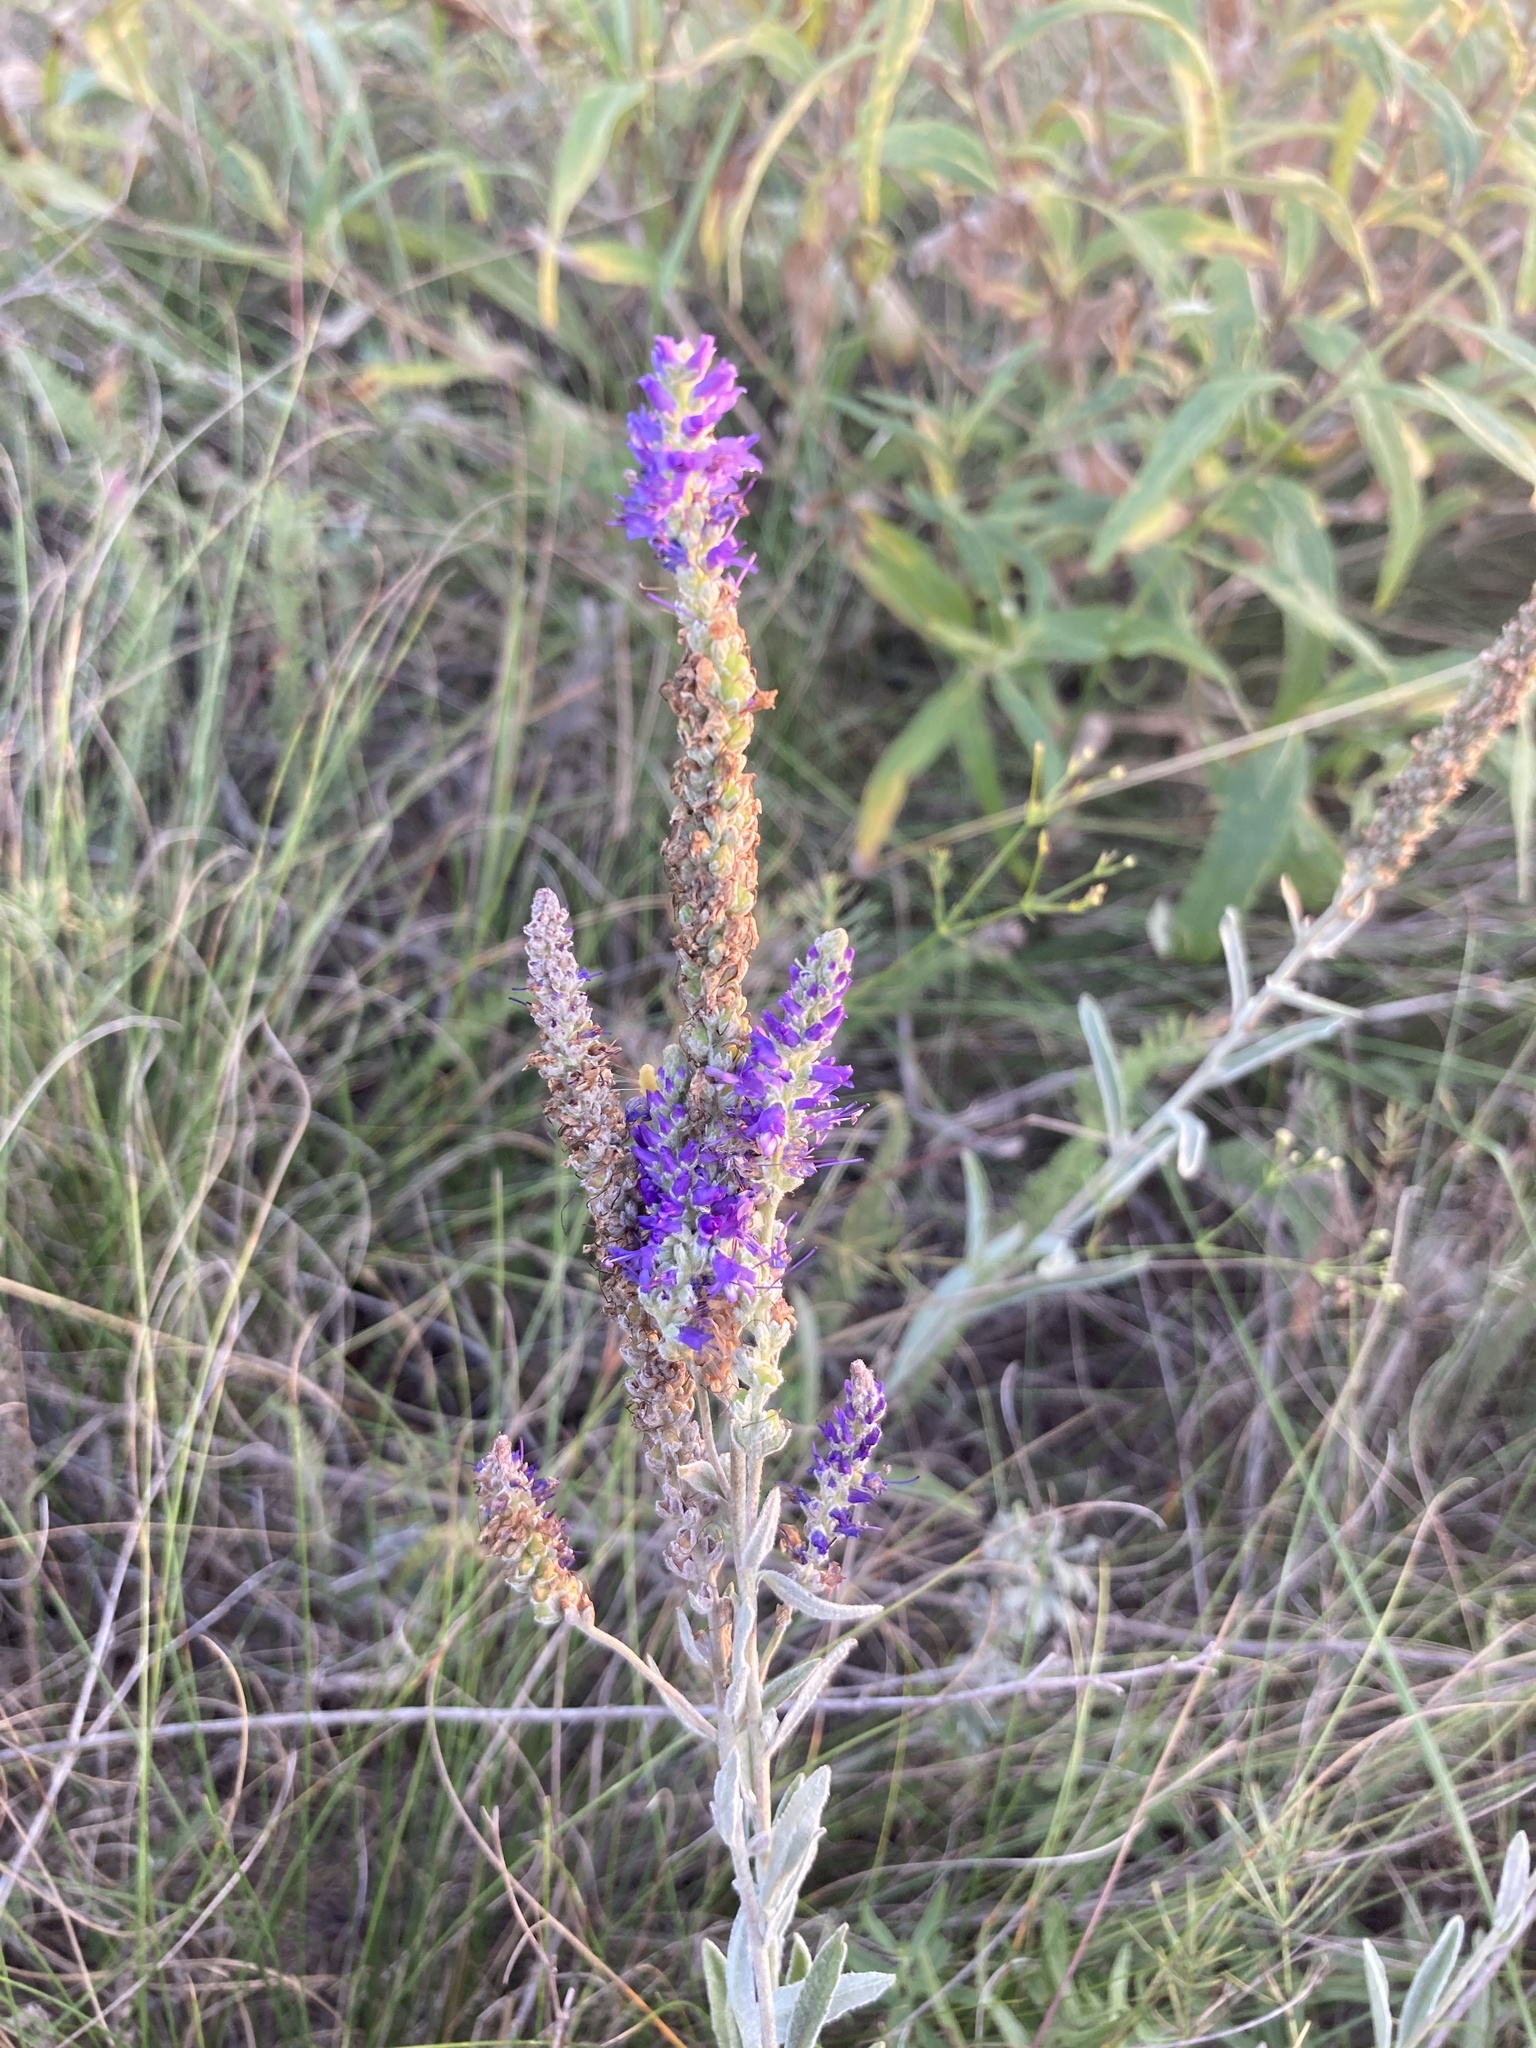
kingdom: Plantae
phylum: Tracheophyta
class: Magnoliopsida
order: Lamiales
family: Plantaginaceae
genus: Veronica
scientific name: Veronica incana
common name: Silver speedwell
